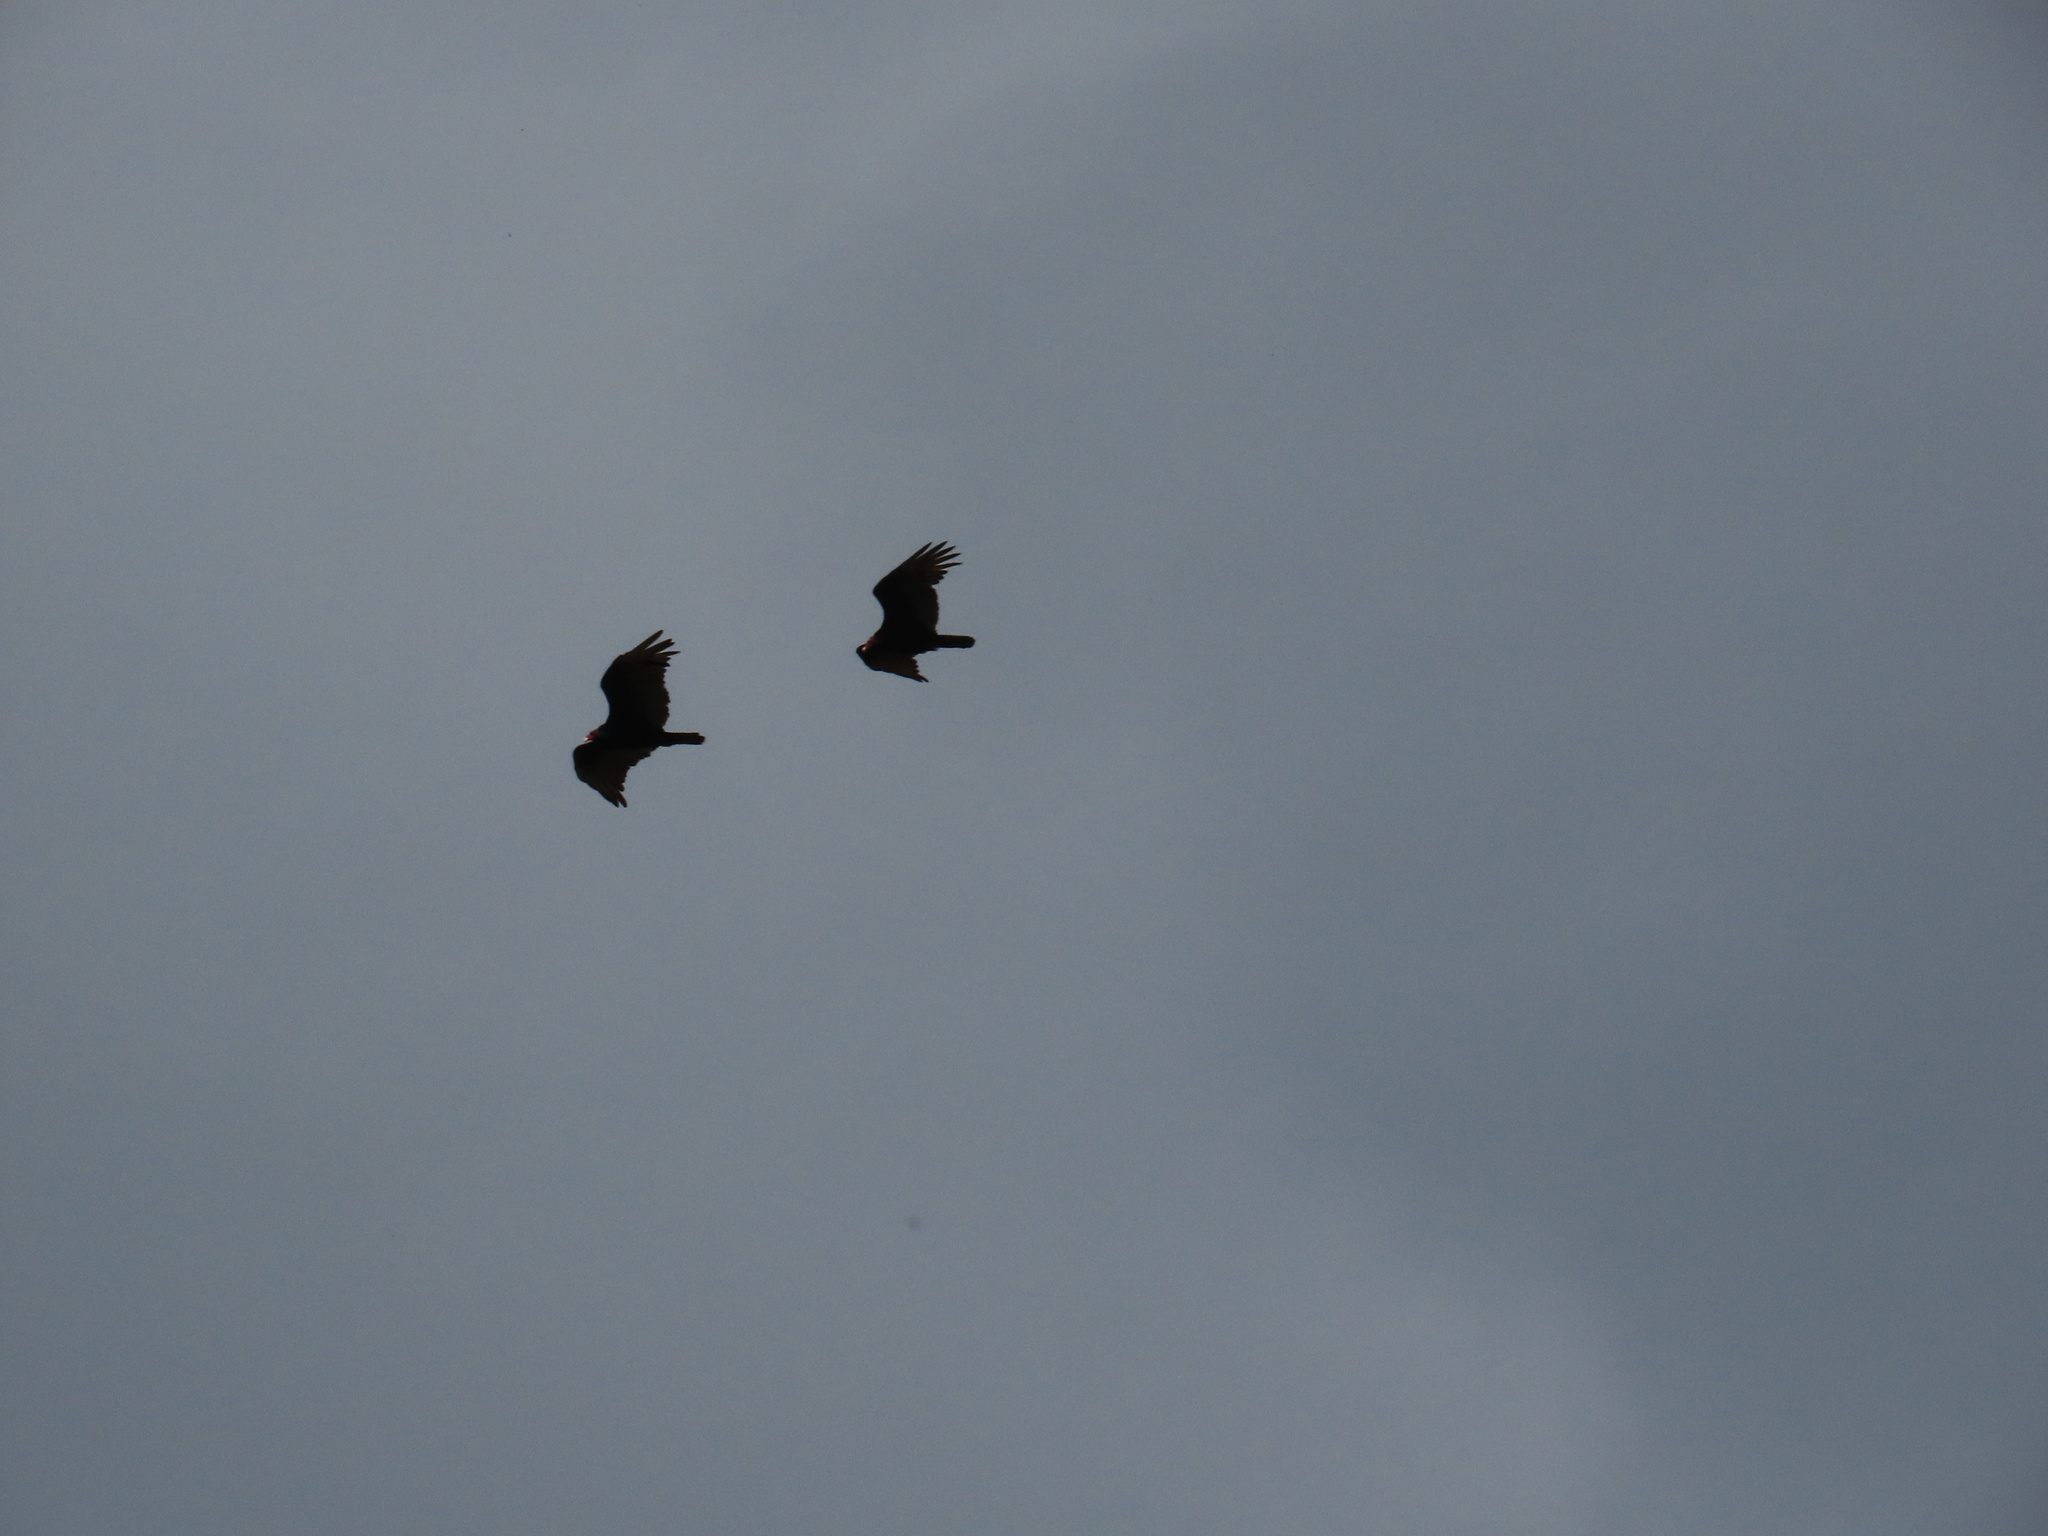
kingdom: Animalia
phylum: Chordata
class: Aves
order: Accipitriformes
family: Cathartidae
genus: Cathartes
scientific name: Cathartes aura
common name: Turkey vulture
